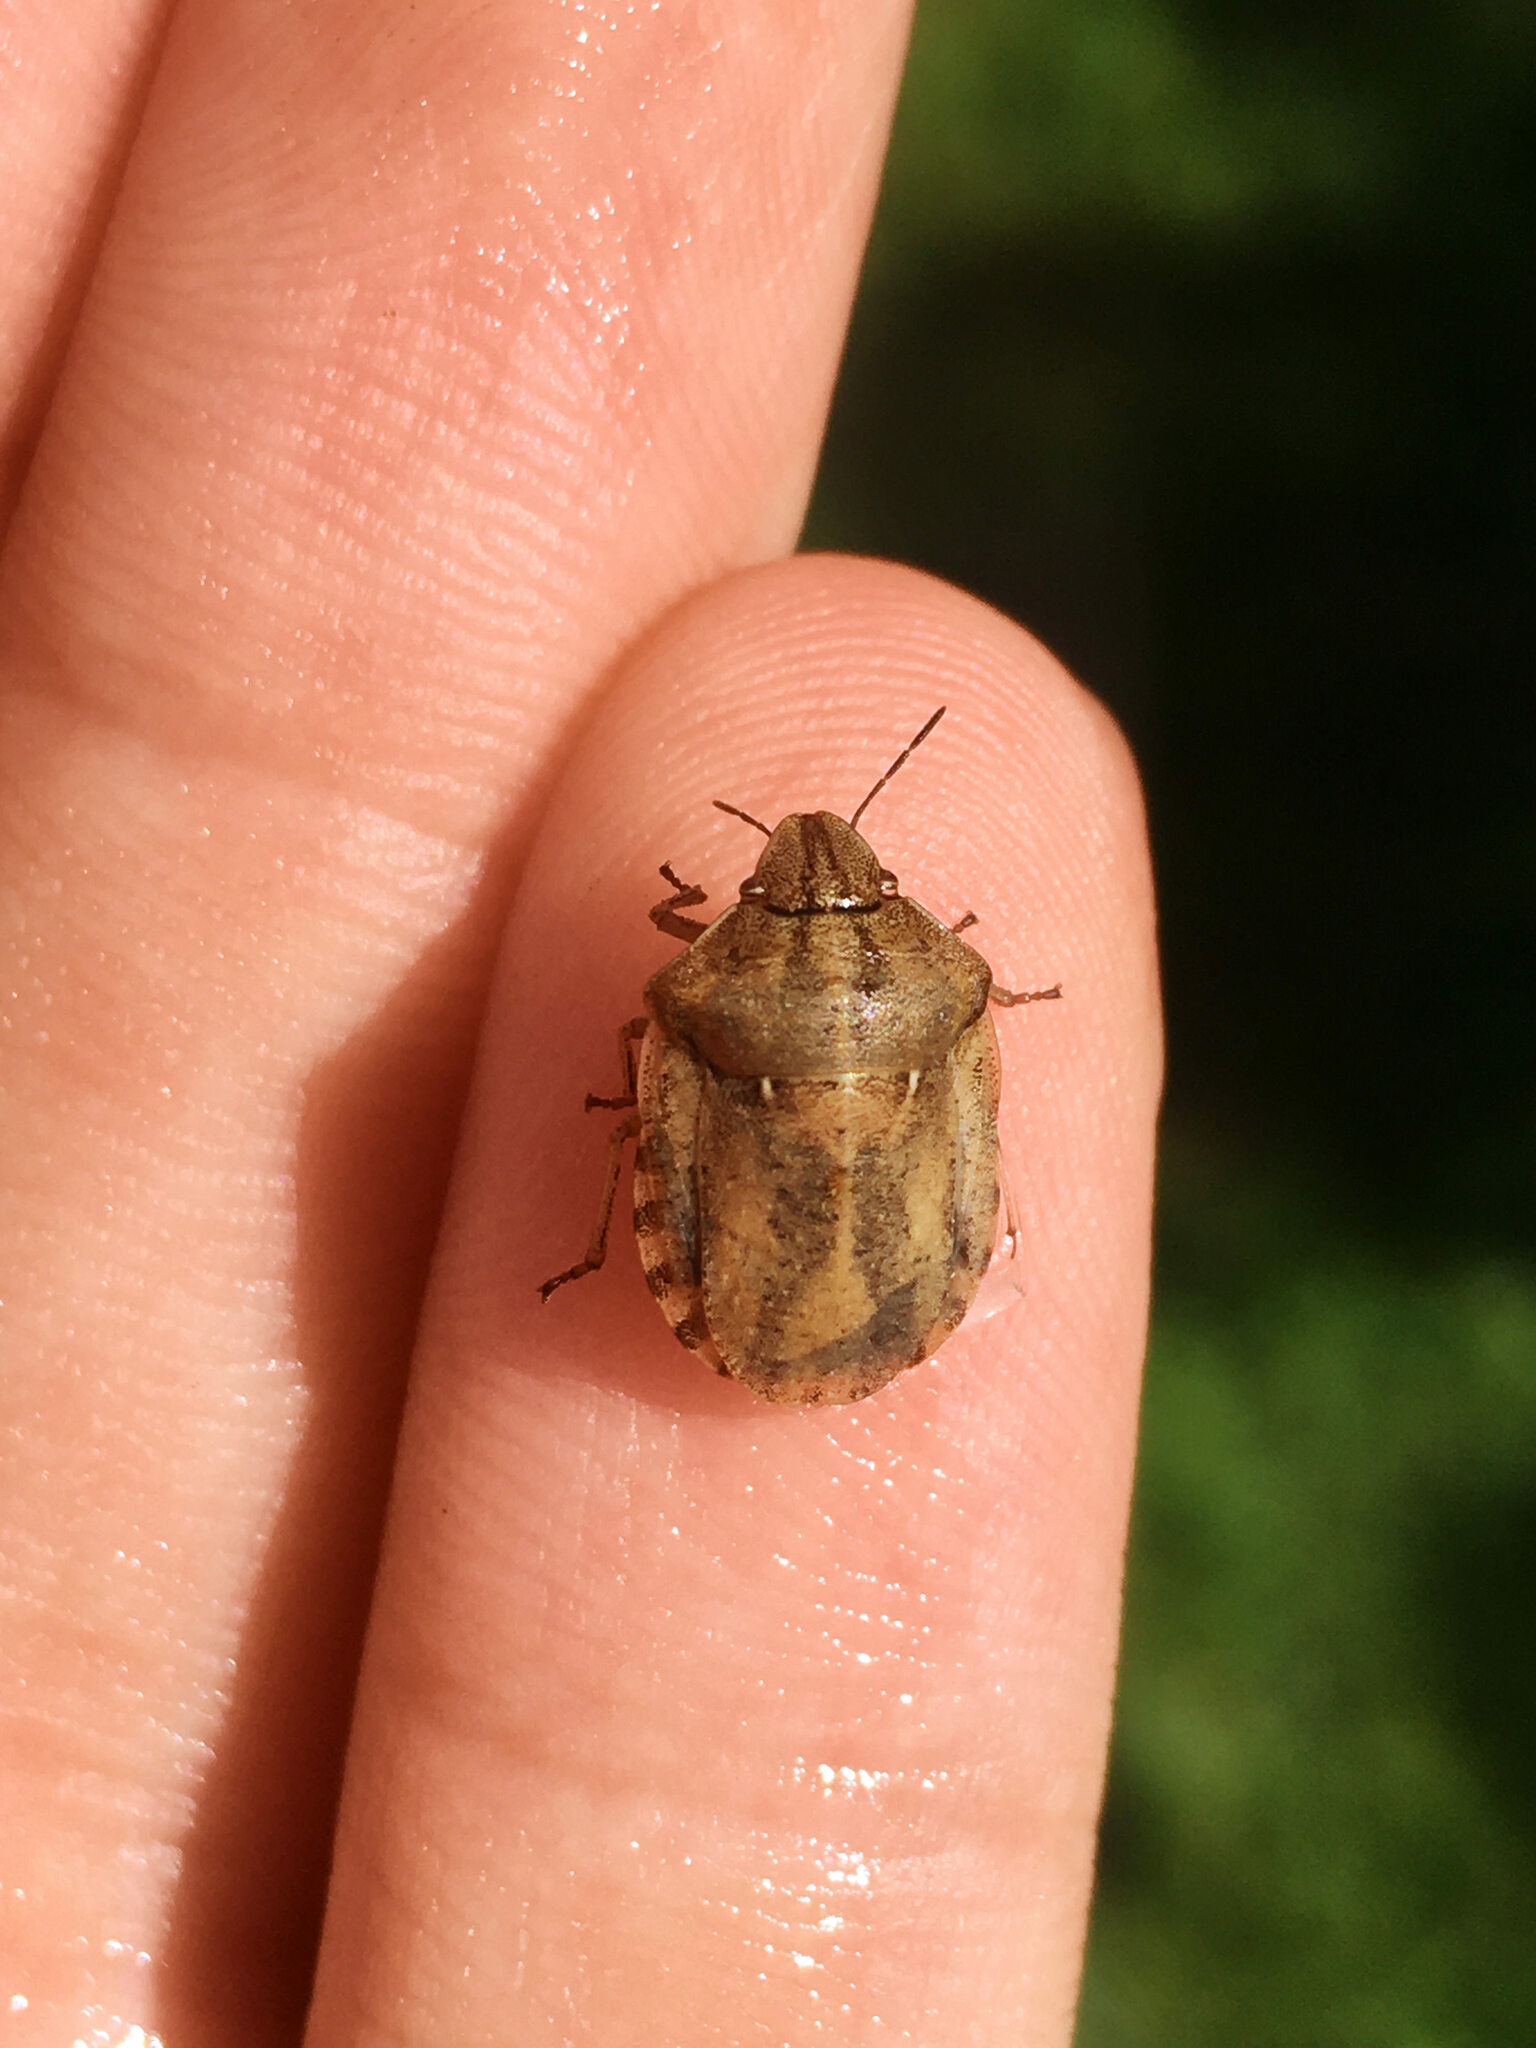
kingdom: Animalia
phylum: Arthropoda
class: Insecta
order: Hemiptera
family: Scutelleridae
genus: Eurygaster
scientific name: Eurygaster testudinaria
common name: Tortoise bug
